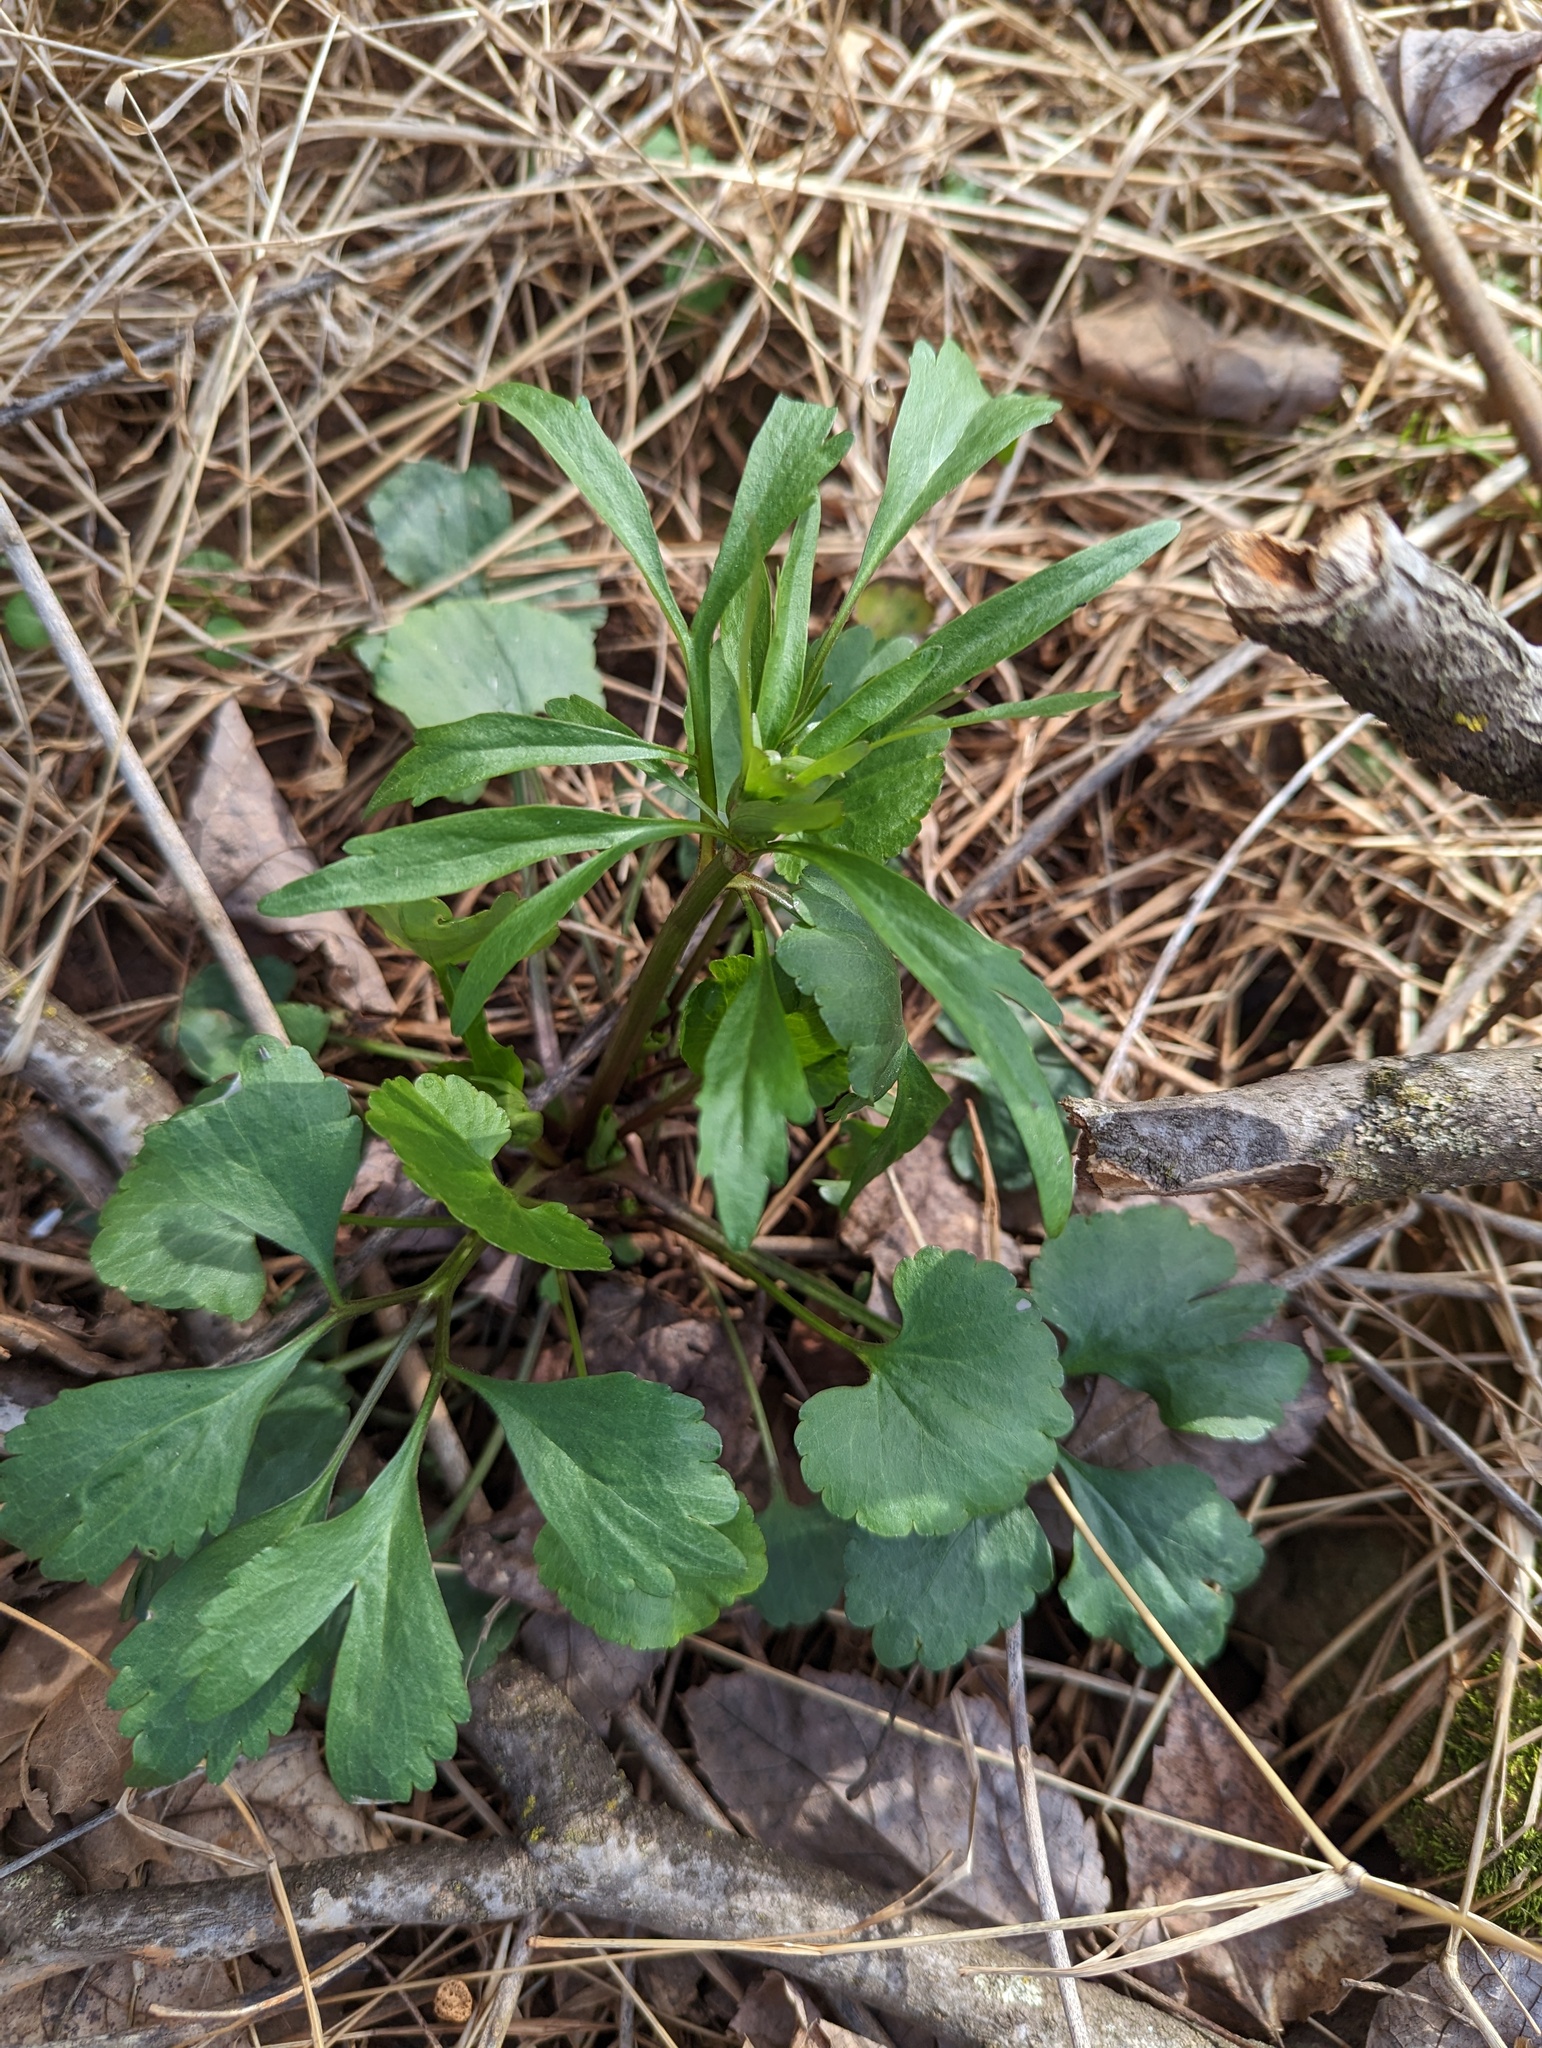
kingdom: Plantae
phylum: Tracheophyta
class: Magnoliopsida
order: Ranunculales
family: Ranunculaceae
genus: Ranunculus
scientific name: Ranunculus abortivus
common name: Early wood buttercup
